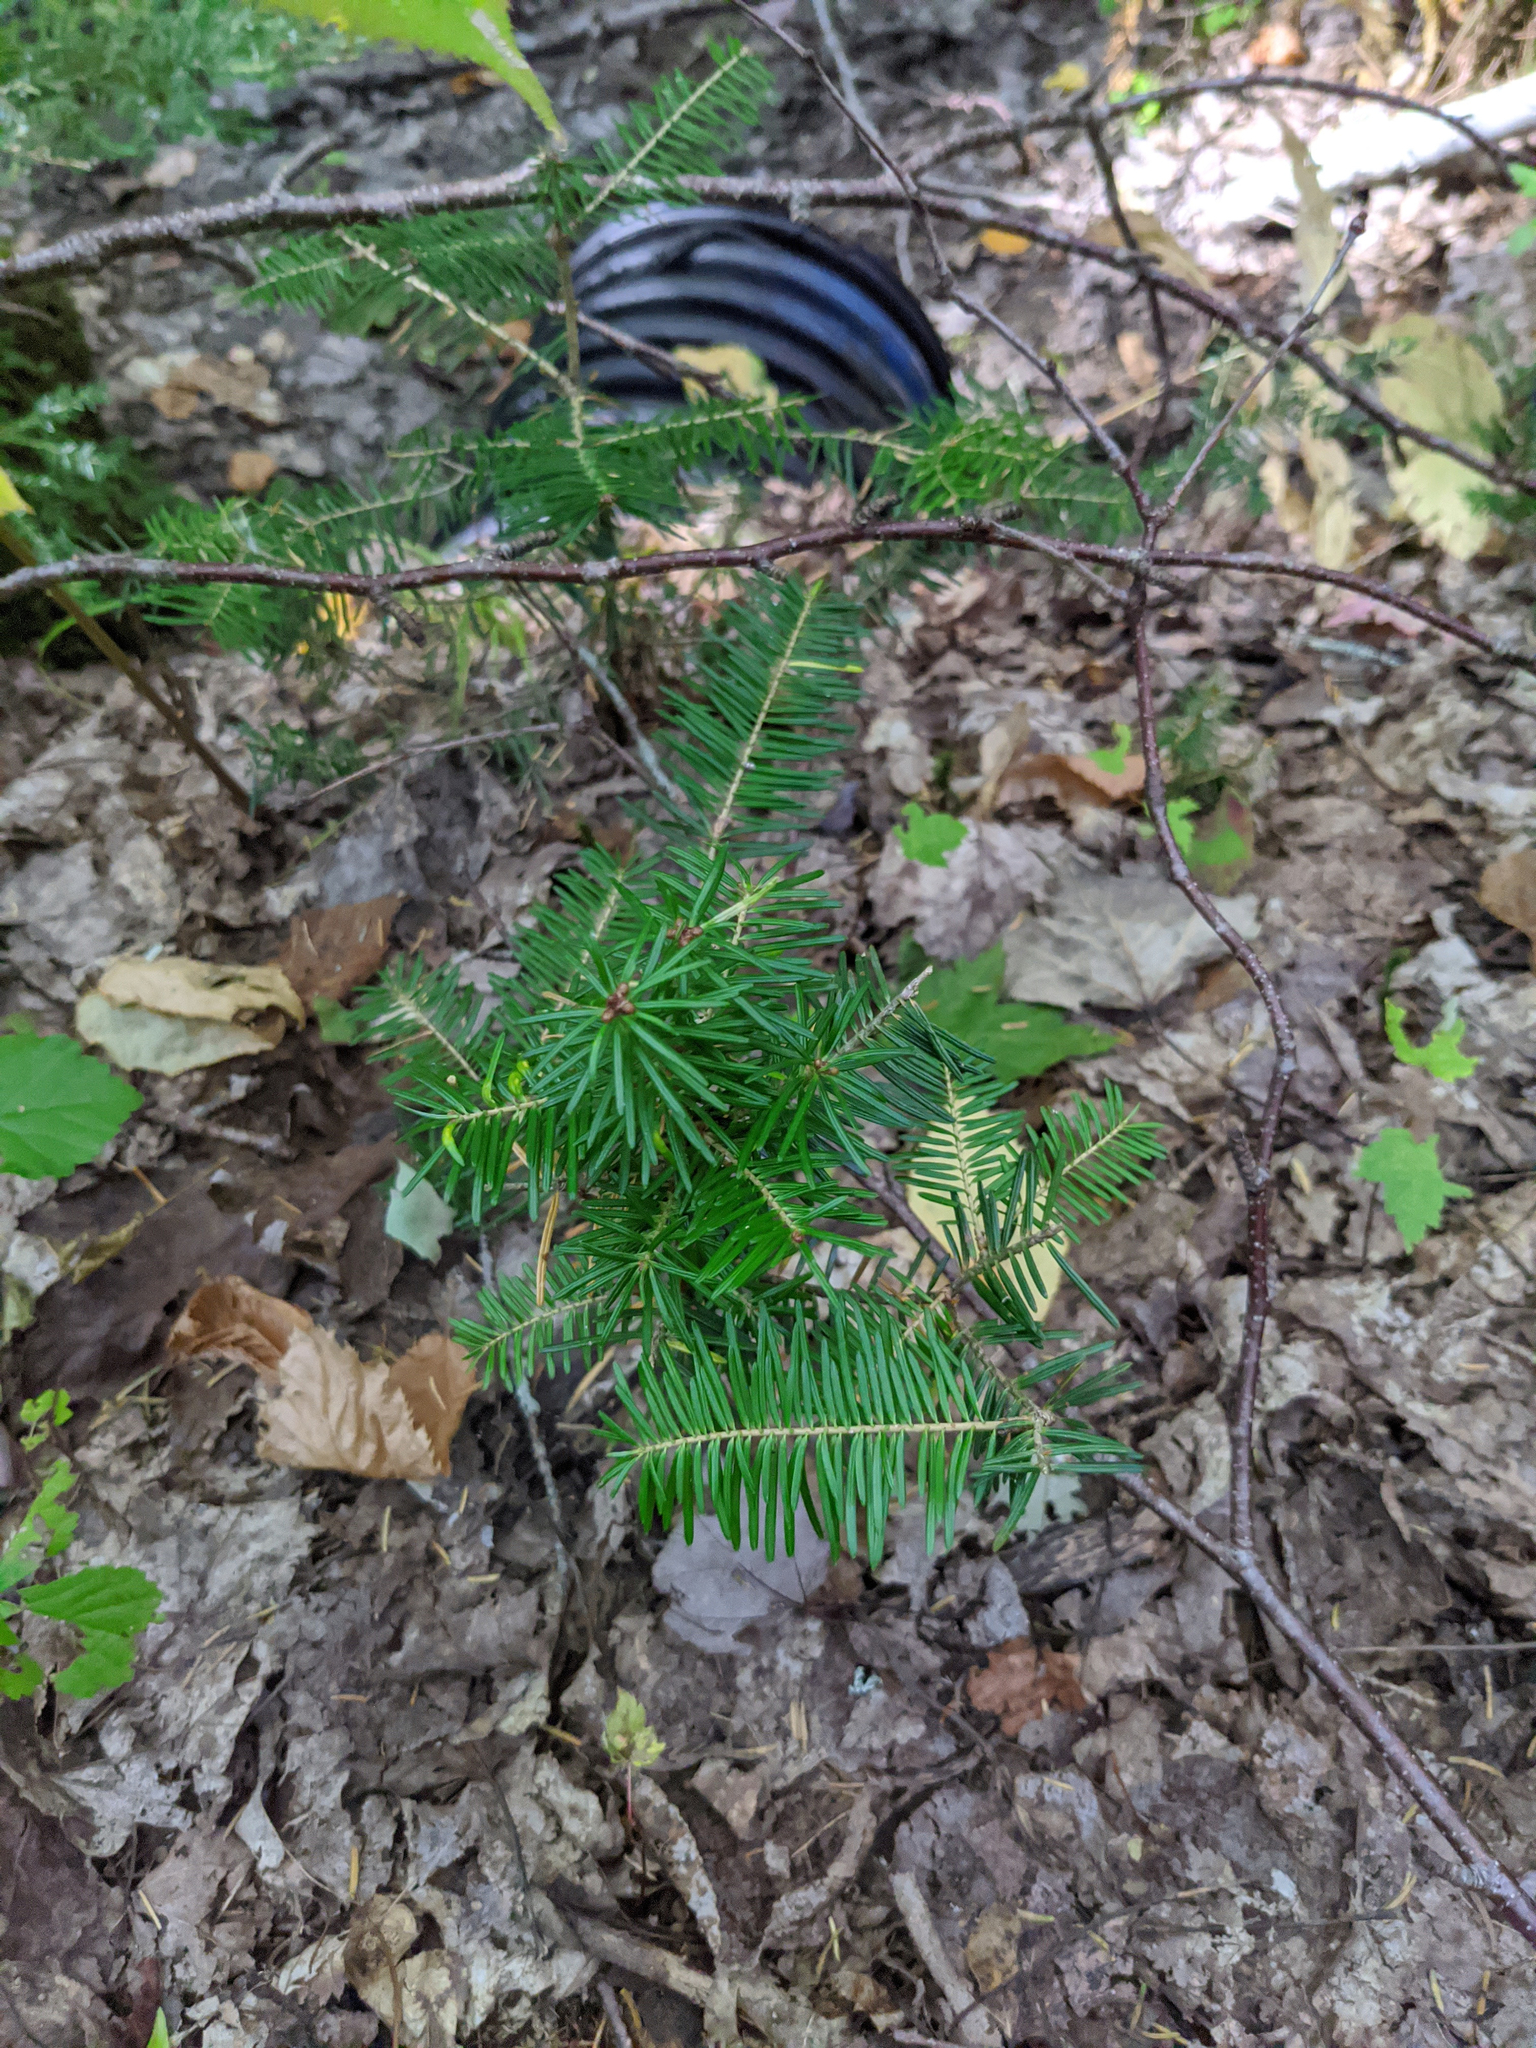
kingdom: Plantae
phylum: Tracheophyta
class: Pinopsida
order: Pinales
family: Pinaceae
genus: Abies
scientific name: Abies balsamea
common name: Balsam fir
